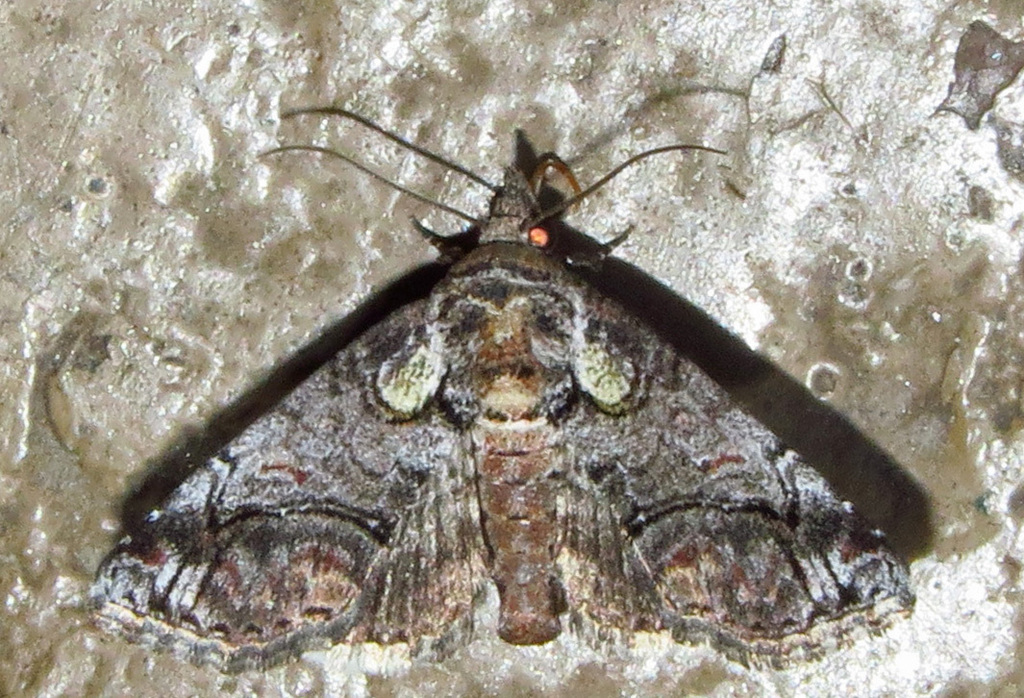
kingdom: Animalia
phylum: Arthropoda
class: Insecta
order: Lepidoptera
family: Euteliidae
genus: Paectes
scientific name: Paectes abrostolella
